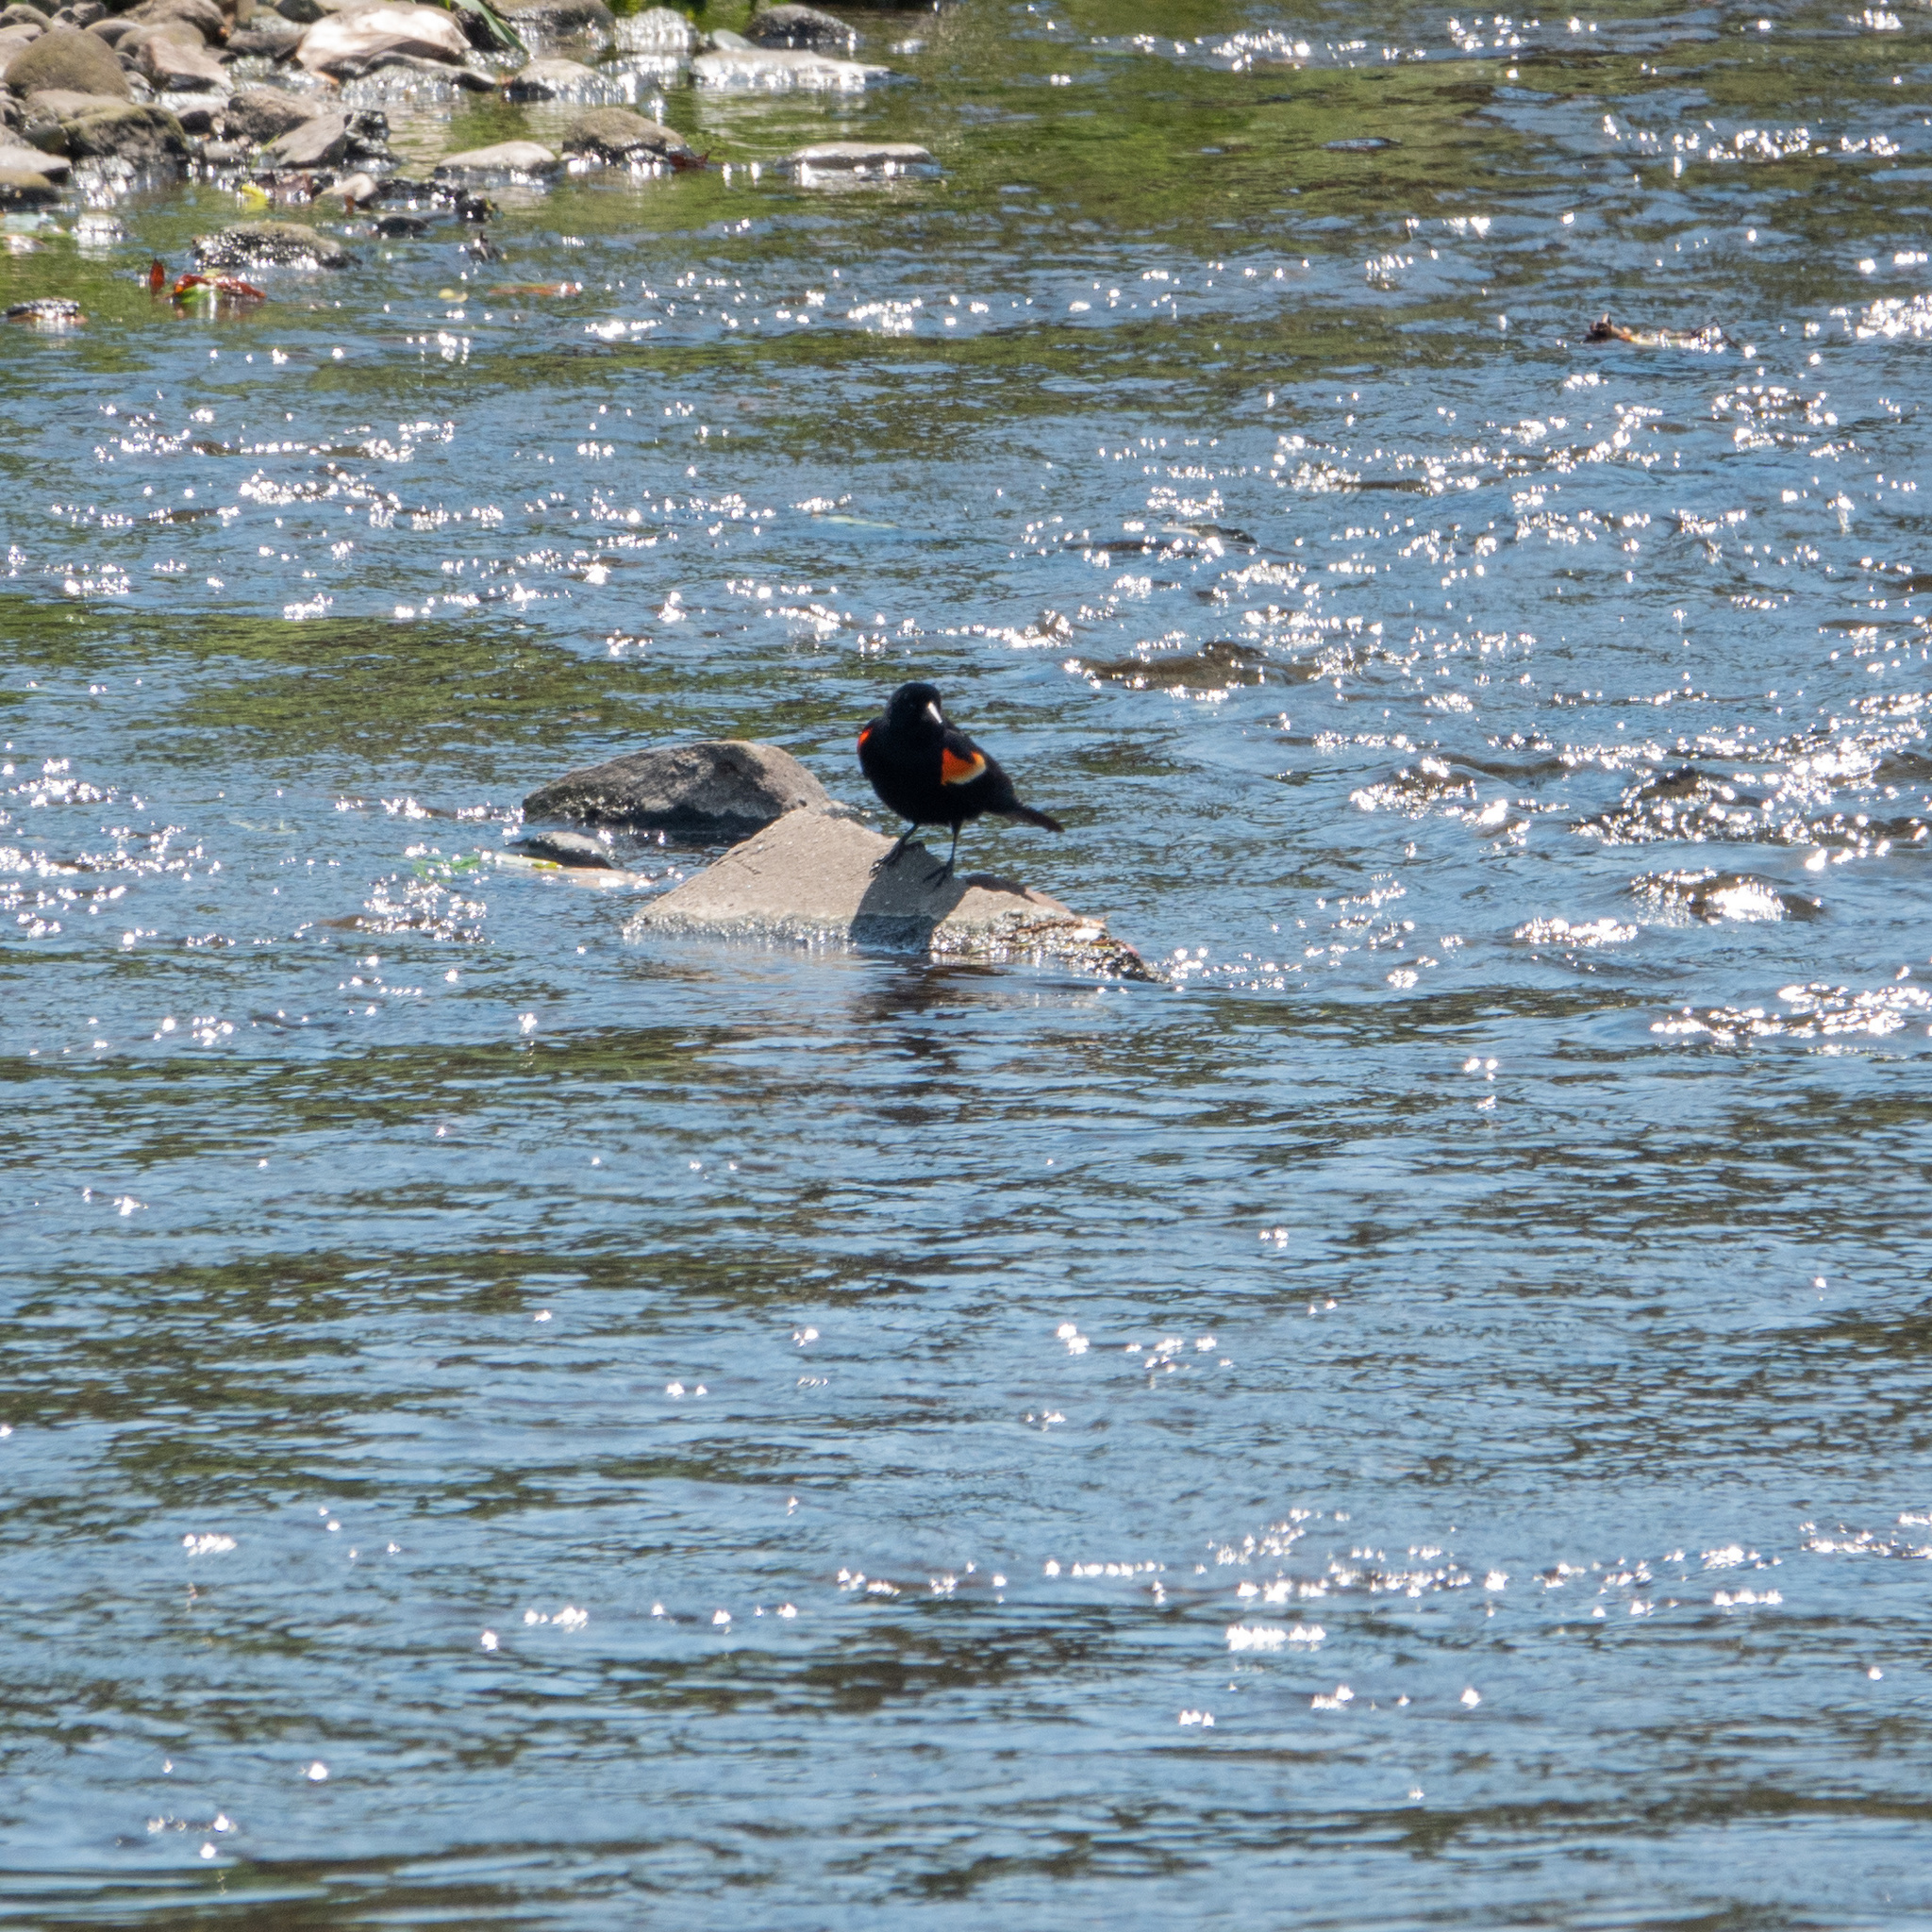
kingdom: Animalia
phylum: Chordata
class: Aves
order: Passeriformes
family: Icteridae
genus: Agelaius
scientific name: Agelaius phoeniceus
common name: Red-winged blackbird
